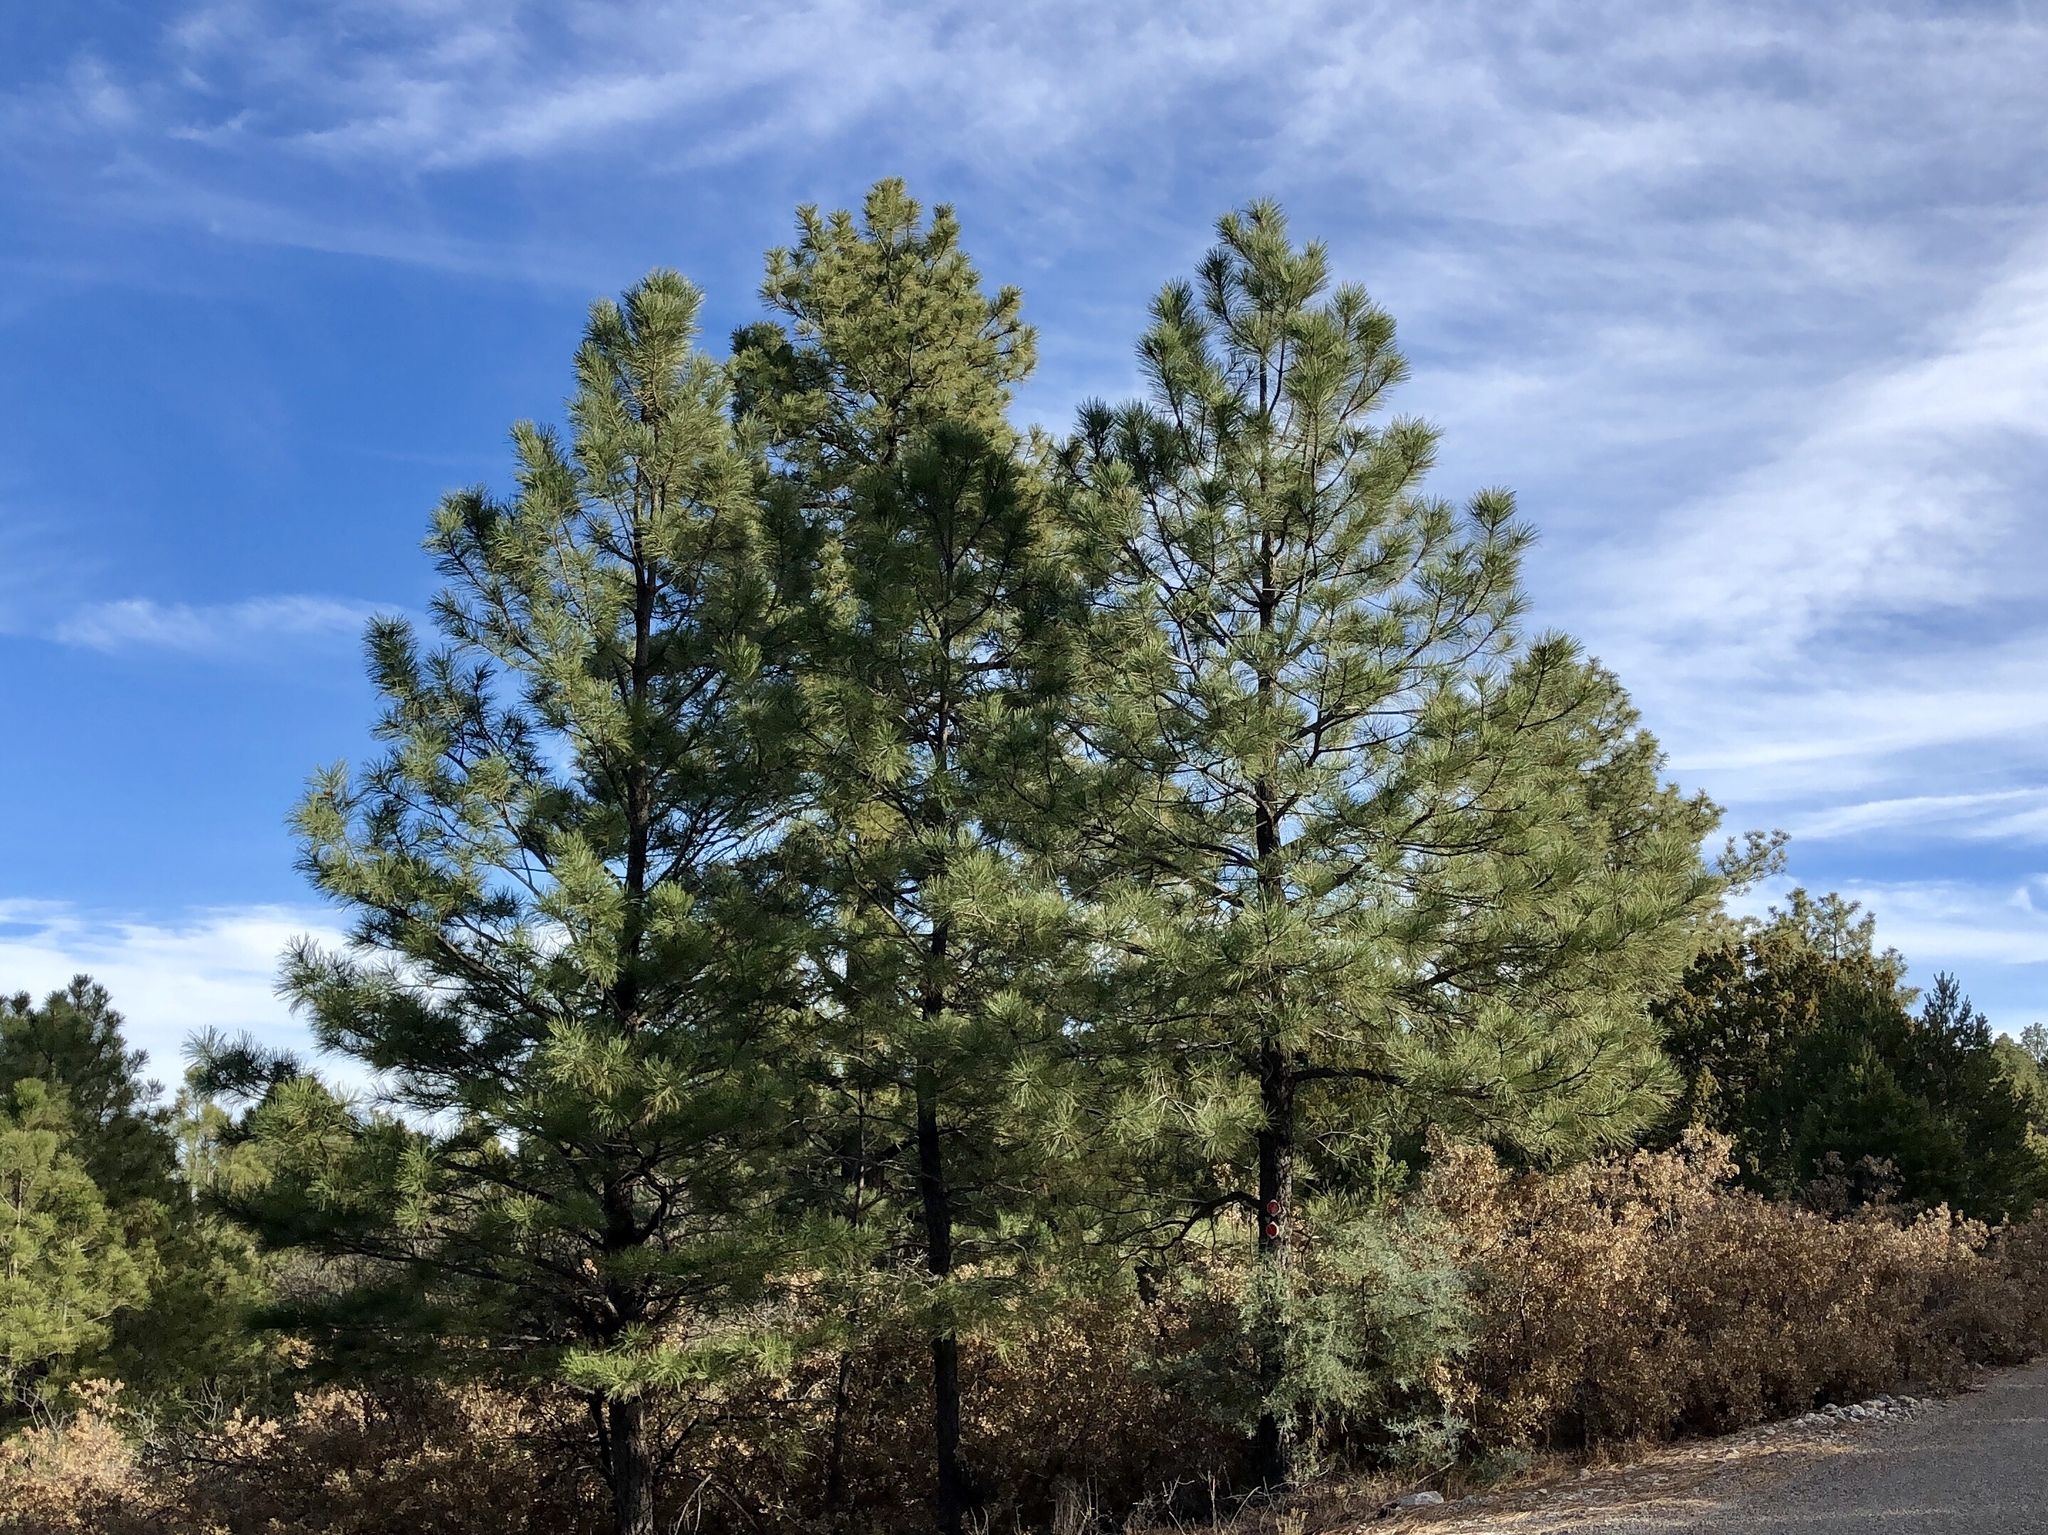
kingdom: Plantae
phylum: Tracheophyta
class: Pinopsida
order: Pinales
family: Pinaceae
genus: Pinus
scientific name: Pinus ponderosa
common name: Western yellow-pine
